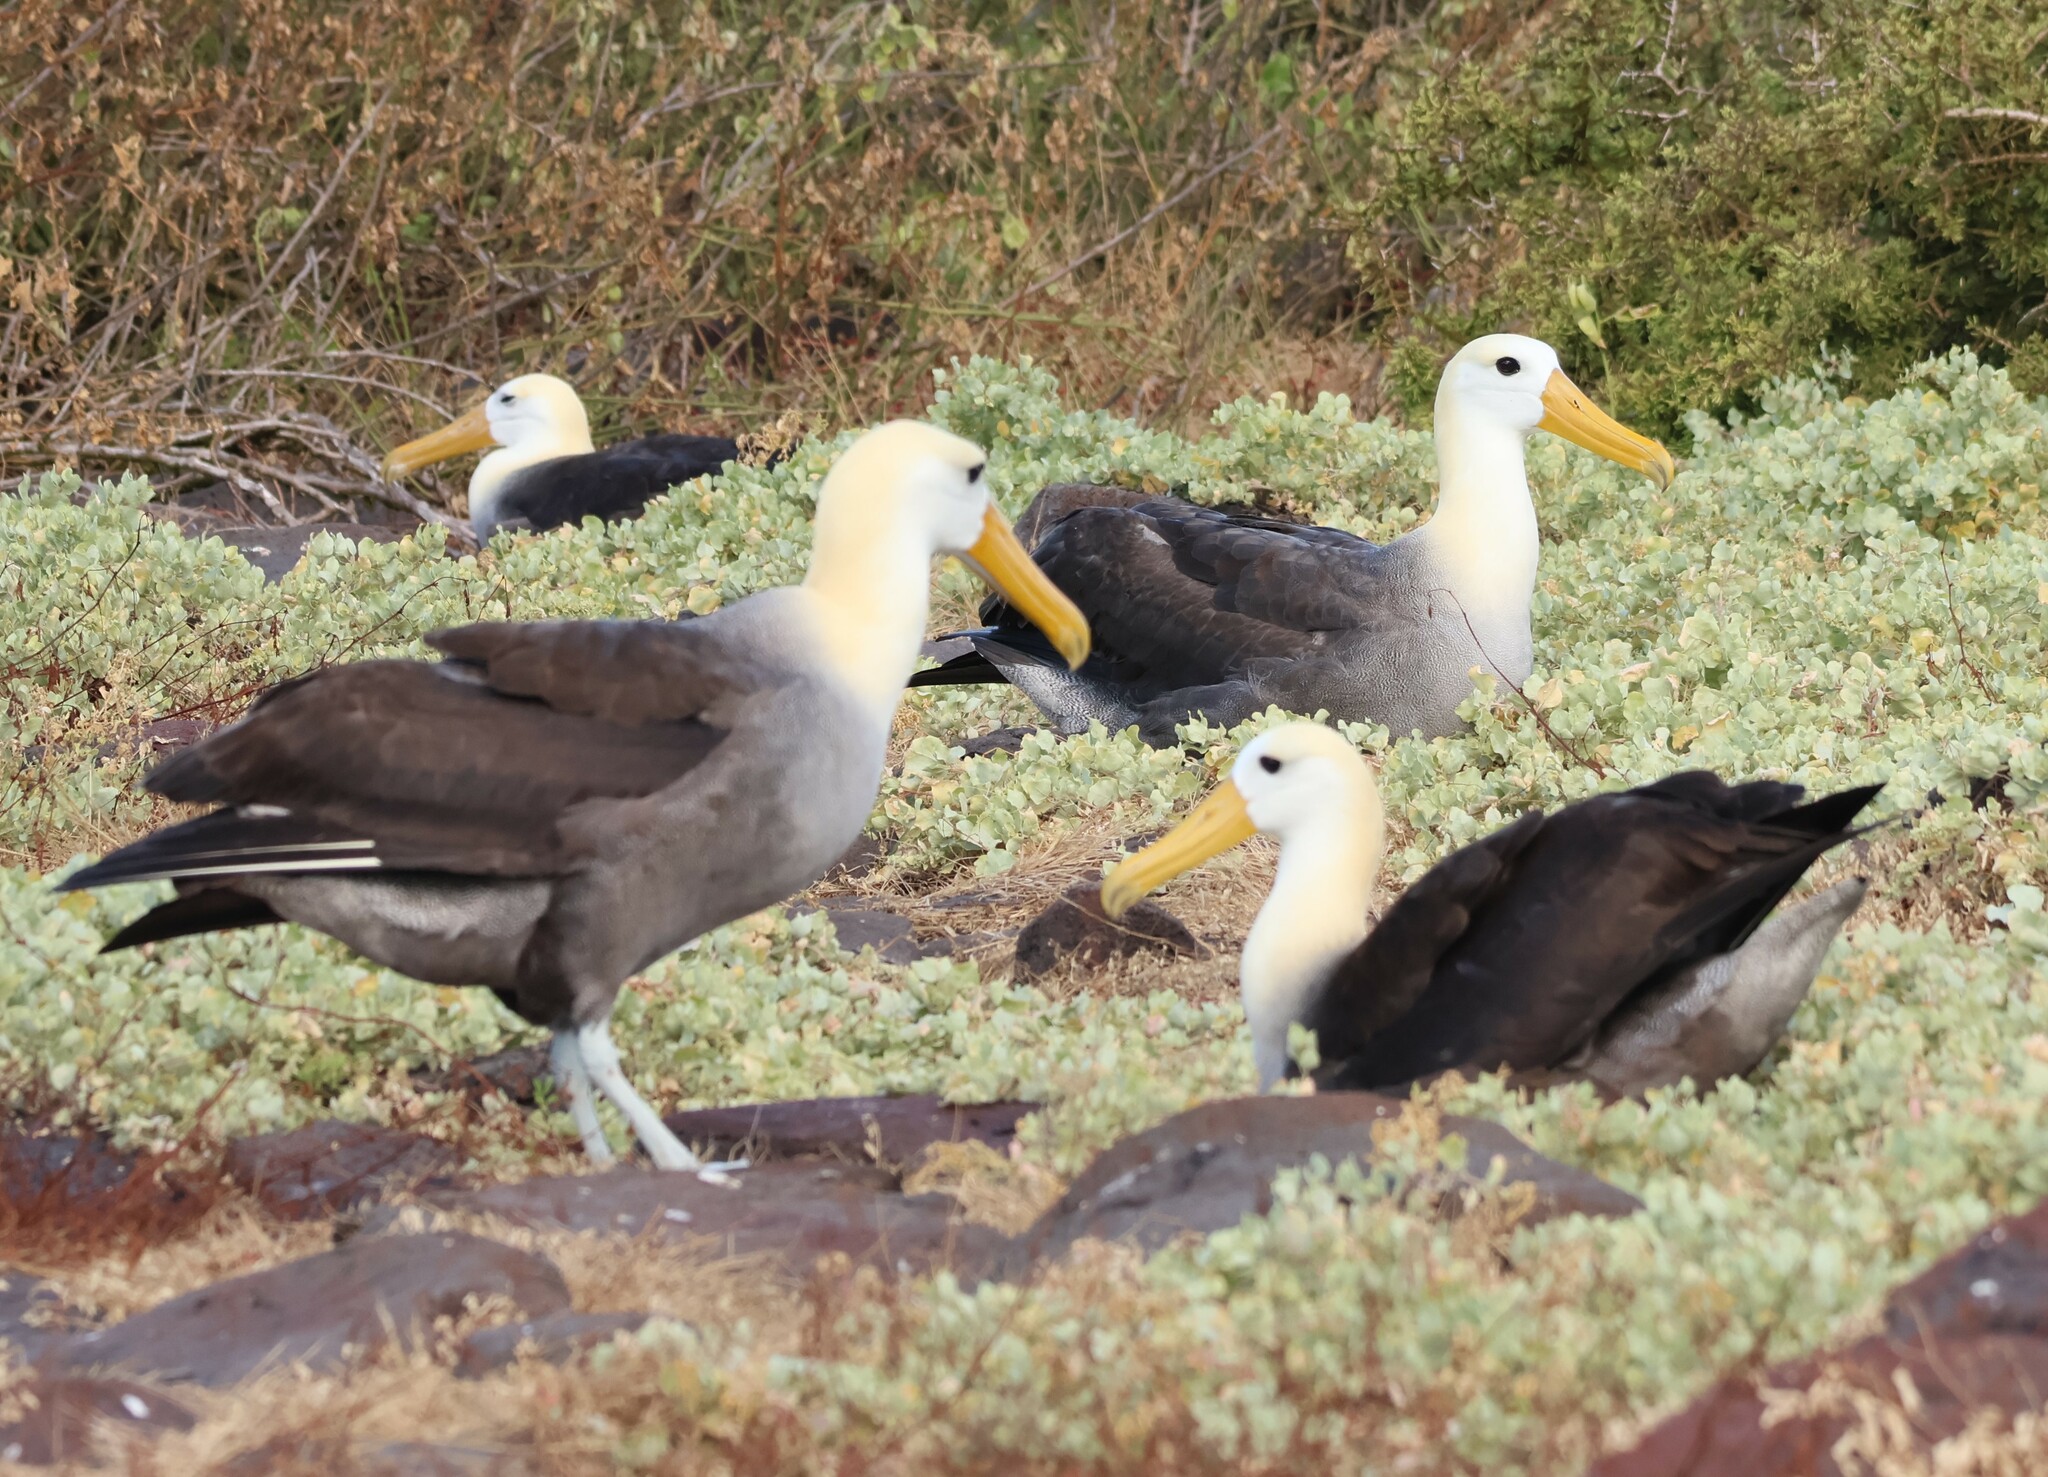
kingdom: Animalia
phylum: Chordata
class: Aves
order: Procellariiformes
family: Diomedeidae
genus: Phoebastria
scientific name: Phoebastria irrorata
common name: Waved albatross
